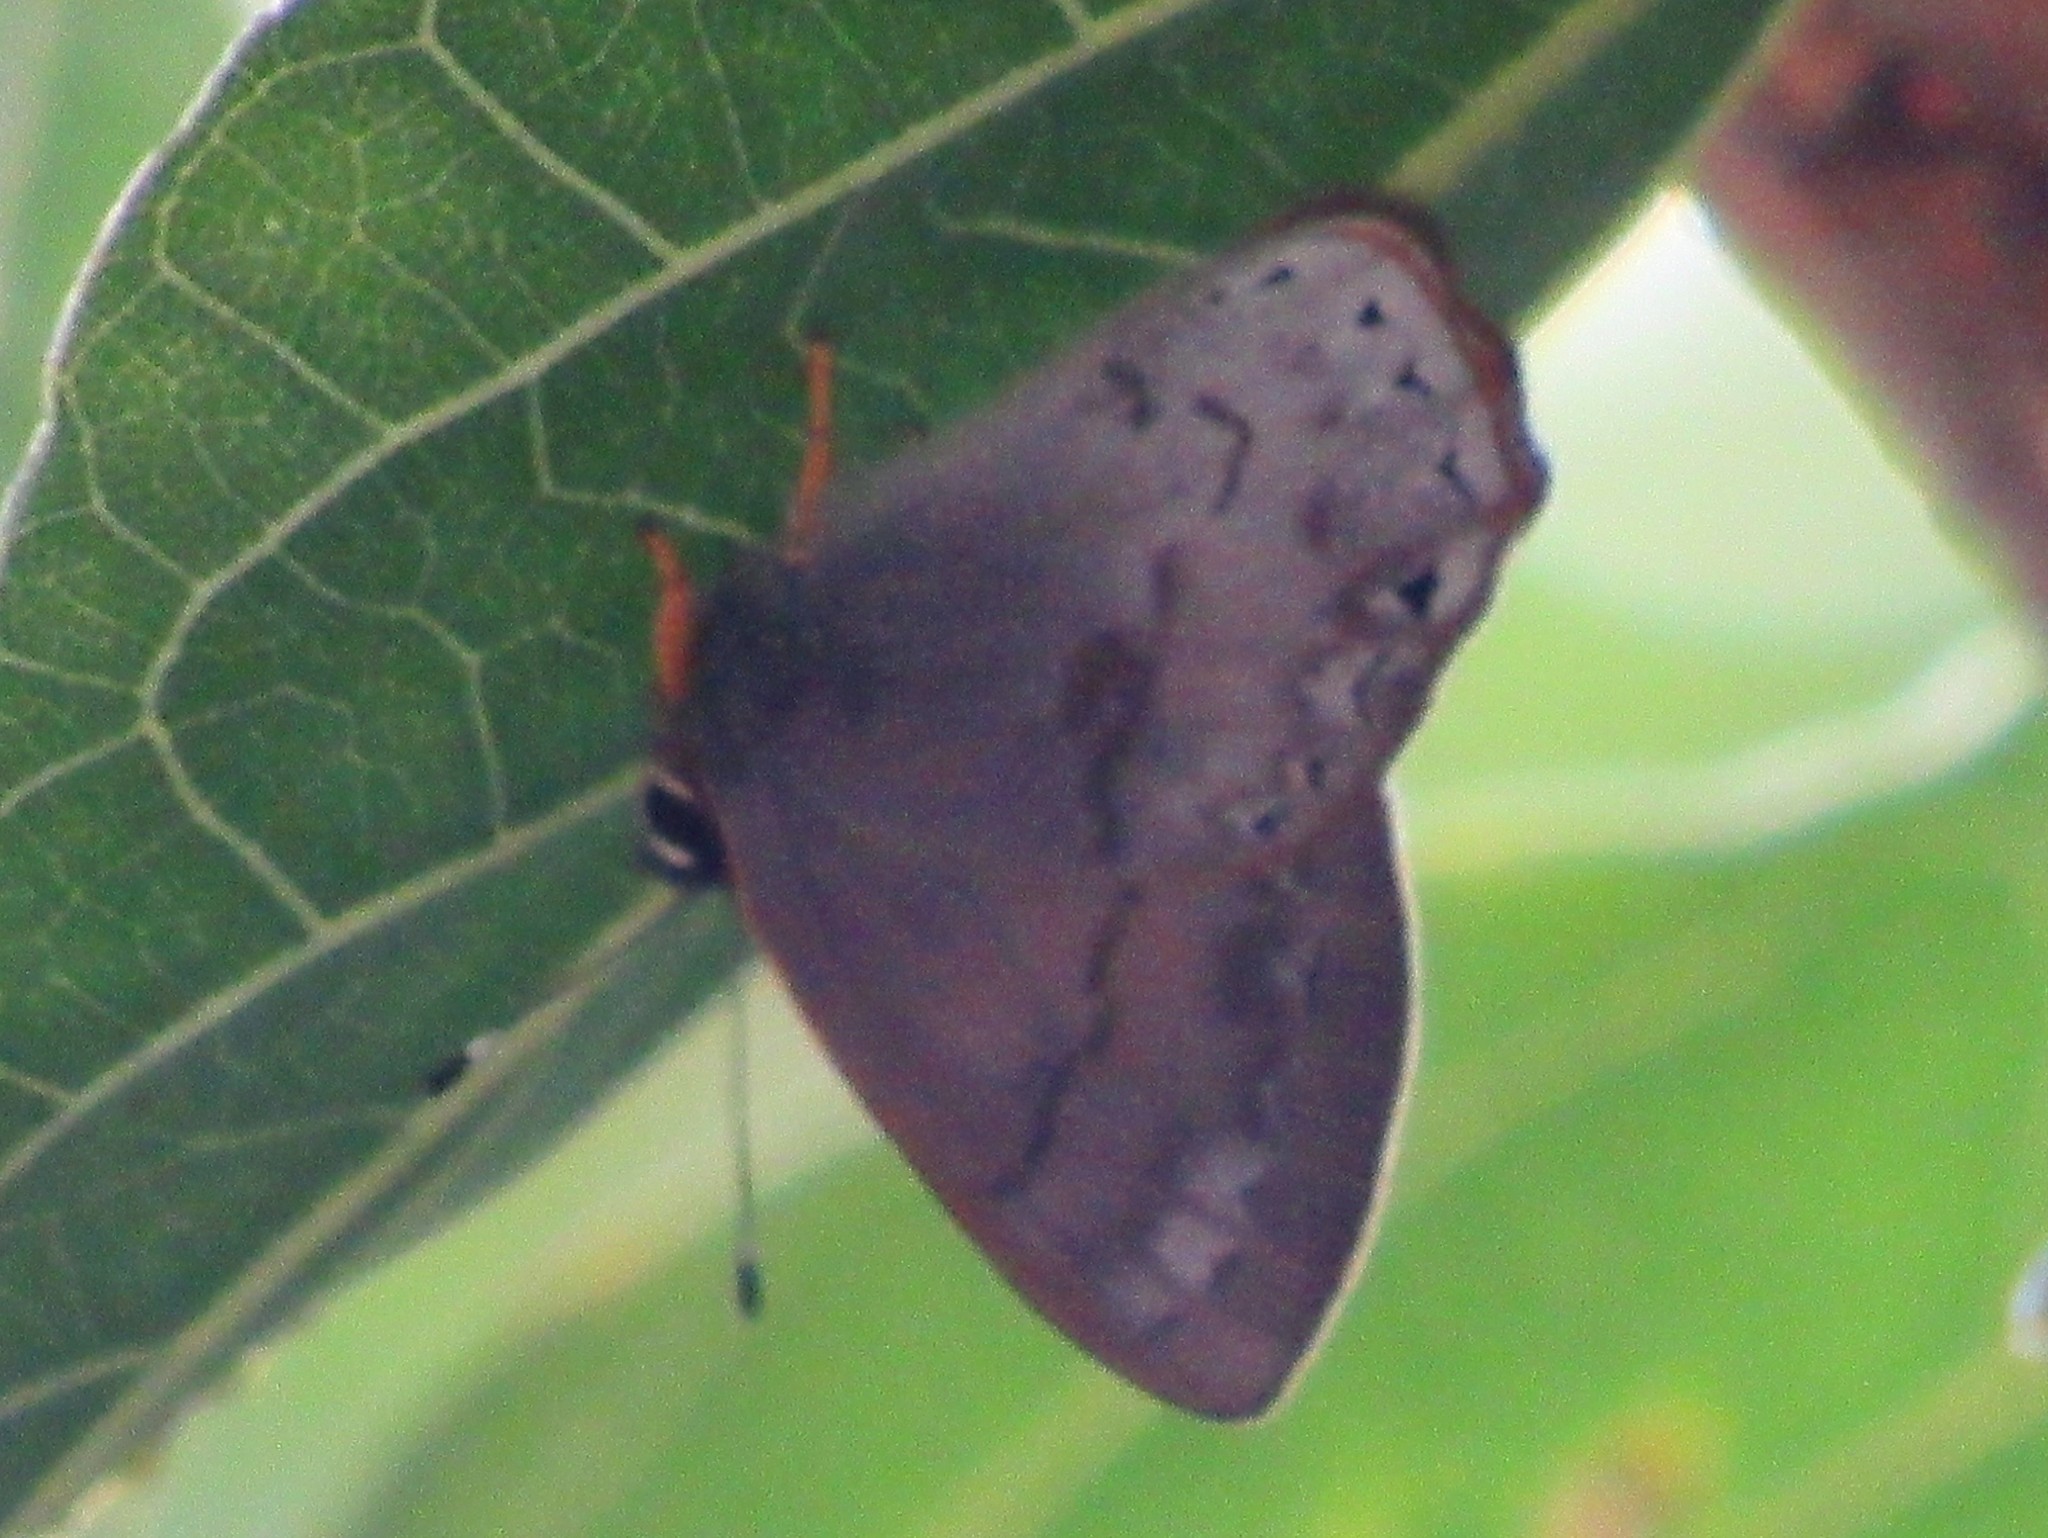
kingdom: Animalia
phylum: Arthropoda
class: Insecta
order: Lepidoptera
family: Lycaenidae
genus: Euselasia
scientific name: Euselasia eucerus
